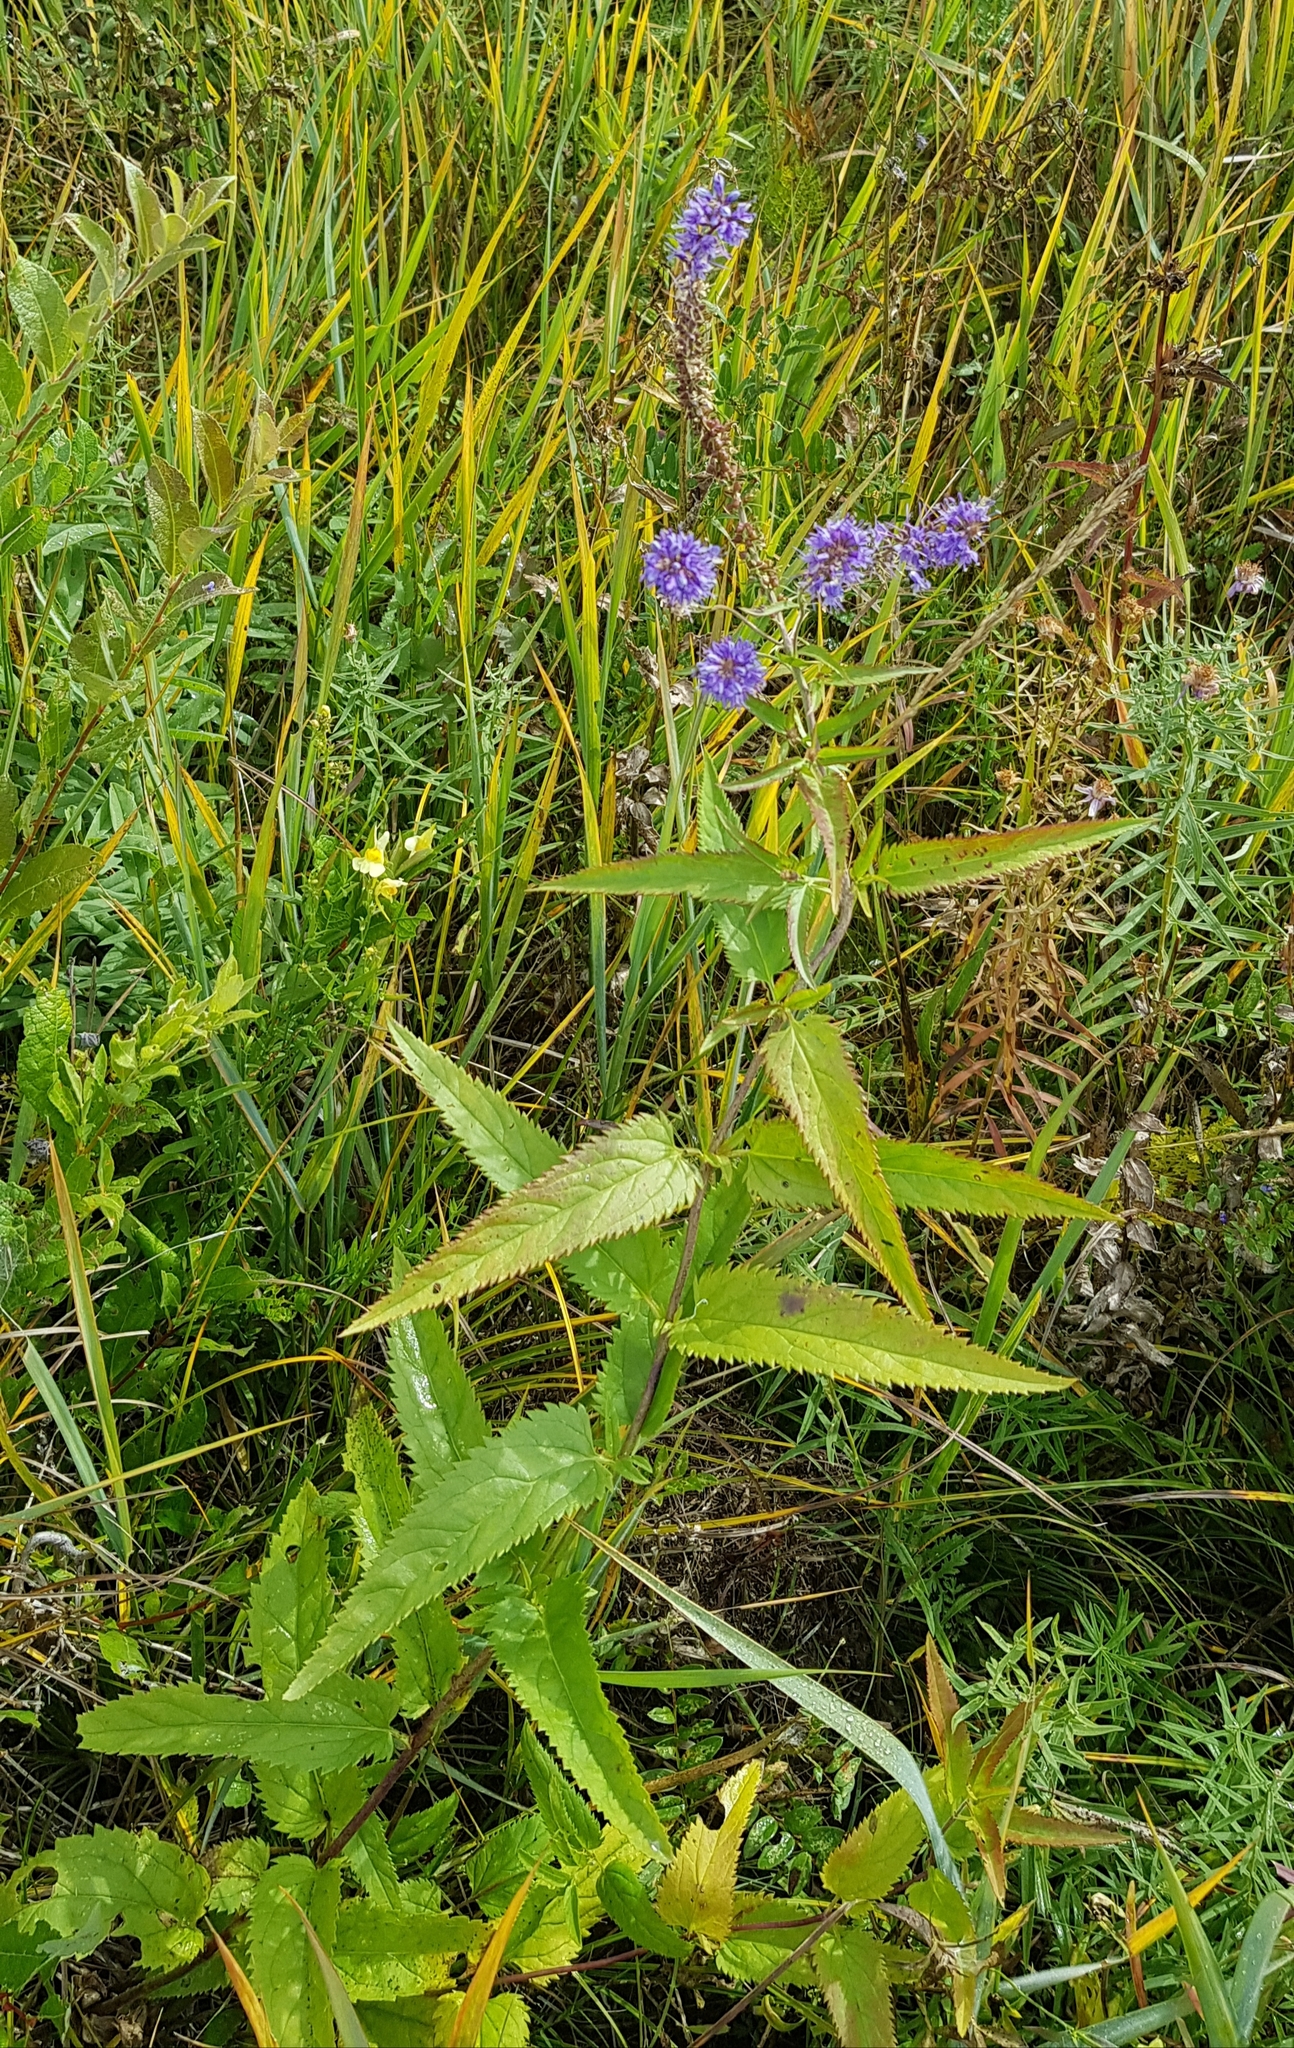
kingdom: Plantae
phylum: Tracheophyta
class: Magnoliopsida
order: Lamiales
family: Plantaginaceae
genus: Veronica
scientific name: Veronica longifolia
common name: Garden speedwell
